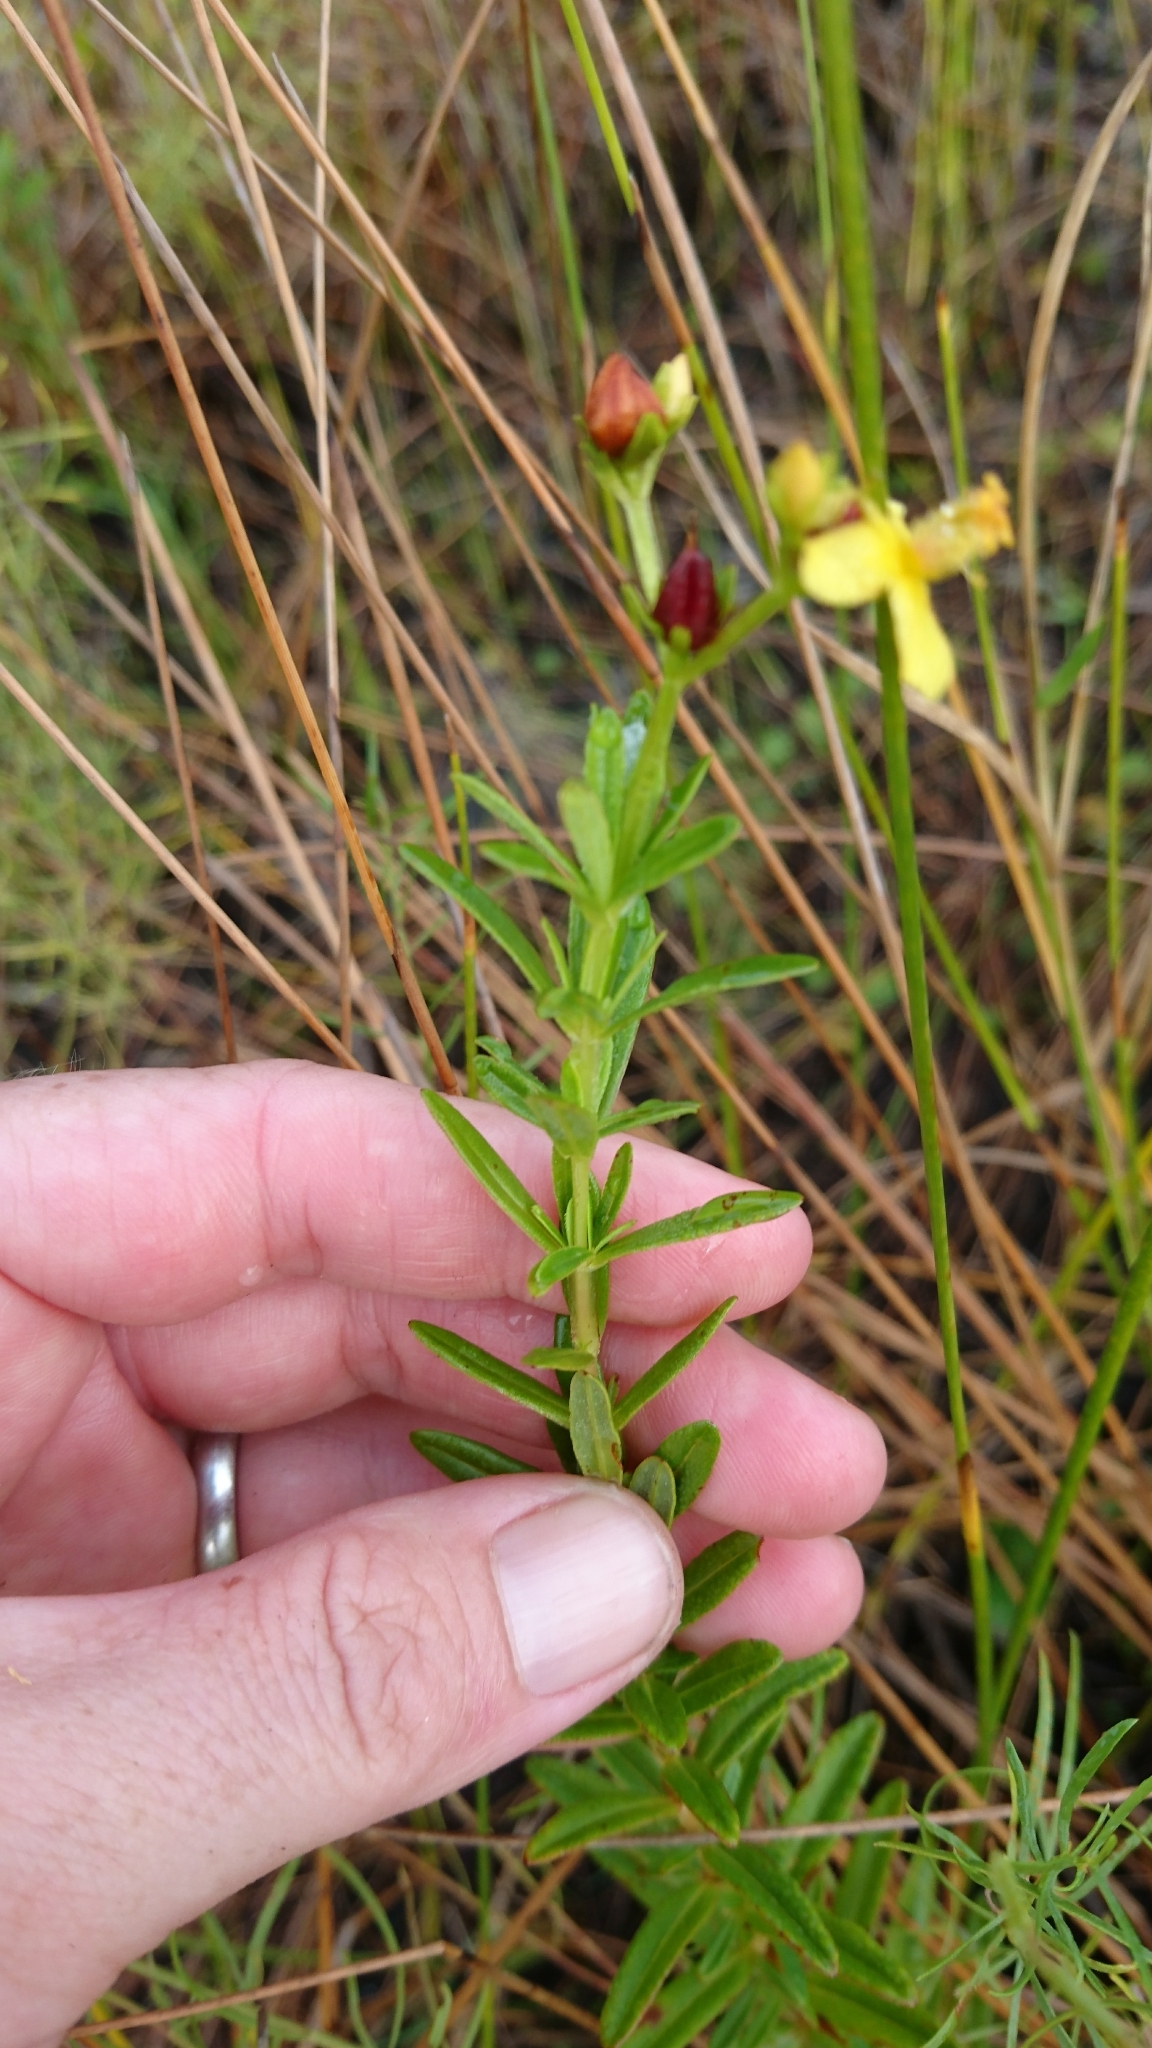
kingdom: Plantae
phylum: Tracheophyta
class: Magnoliopsida
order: Malpighiales
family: Hypericaceae
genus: Hypericum
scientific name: Hypericum cistifolium
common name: Round-pod st. john's-wort
